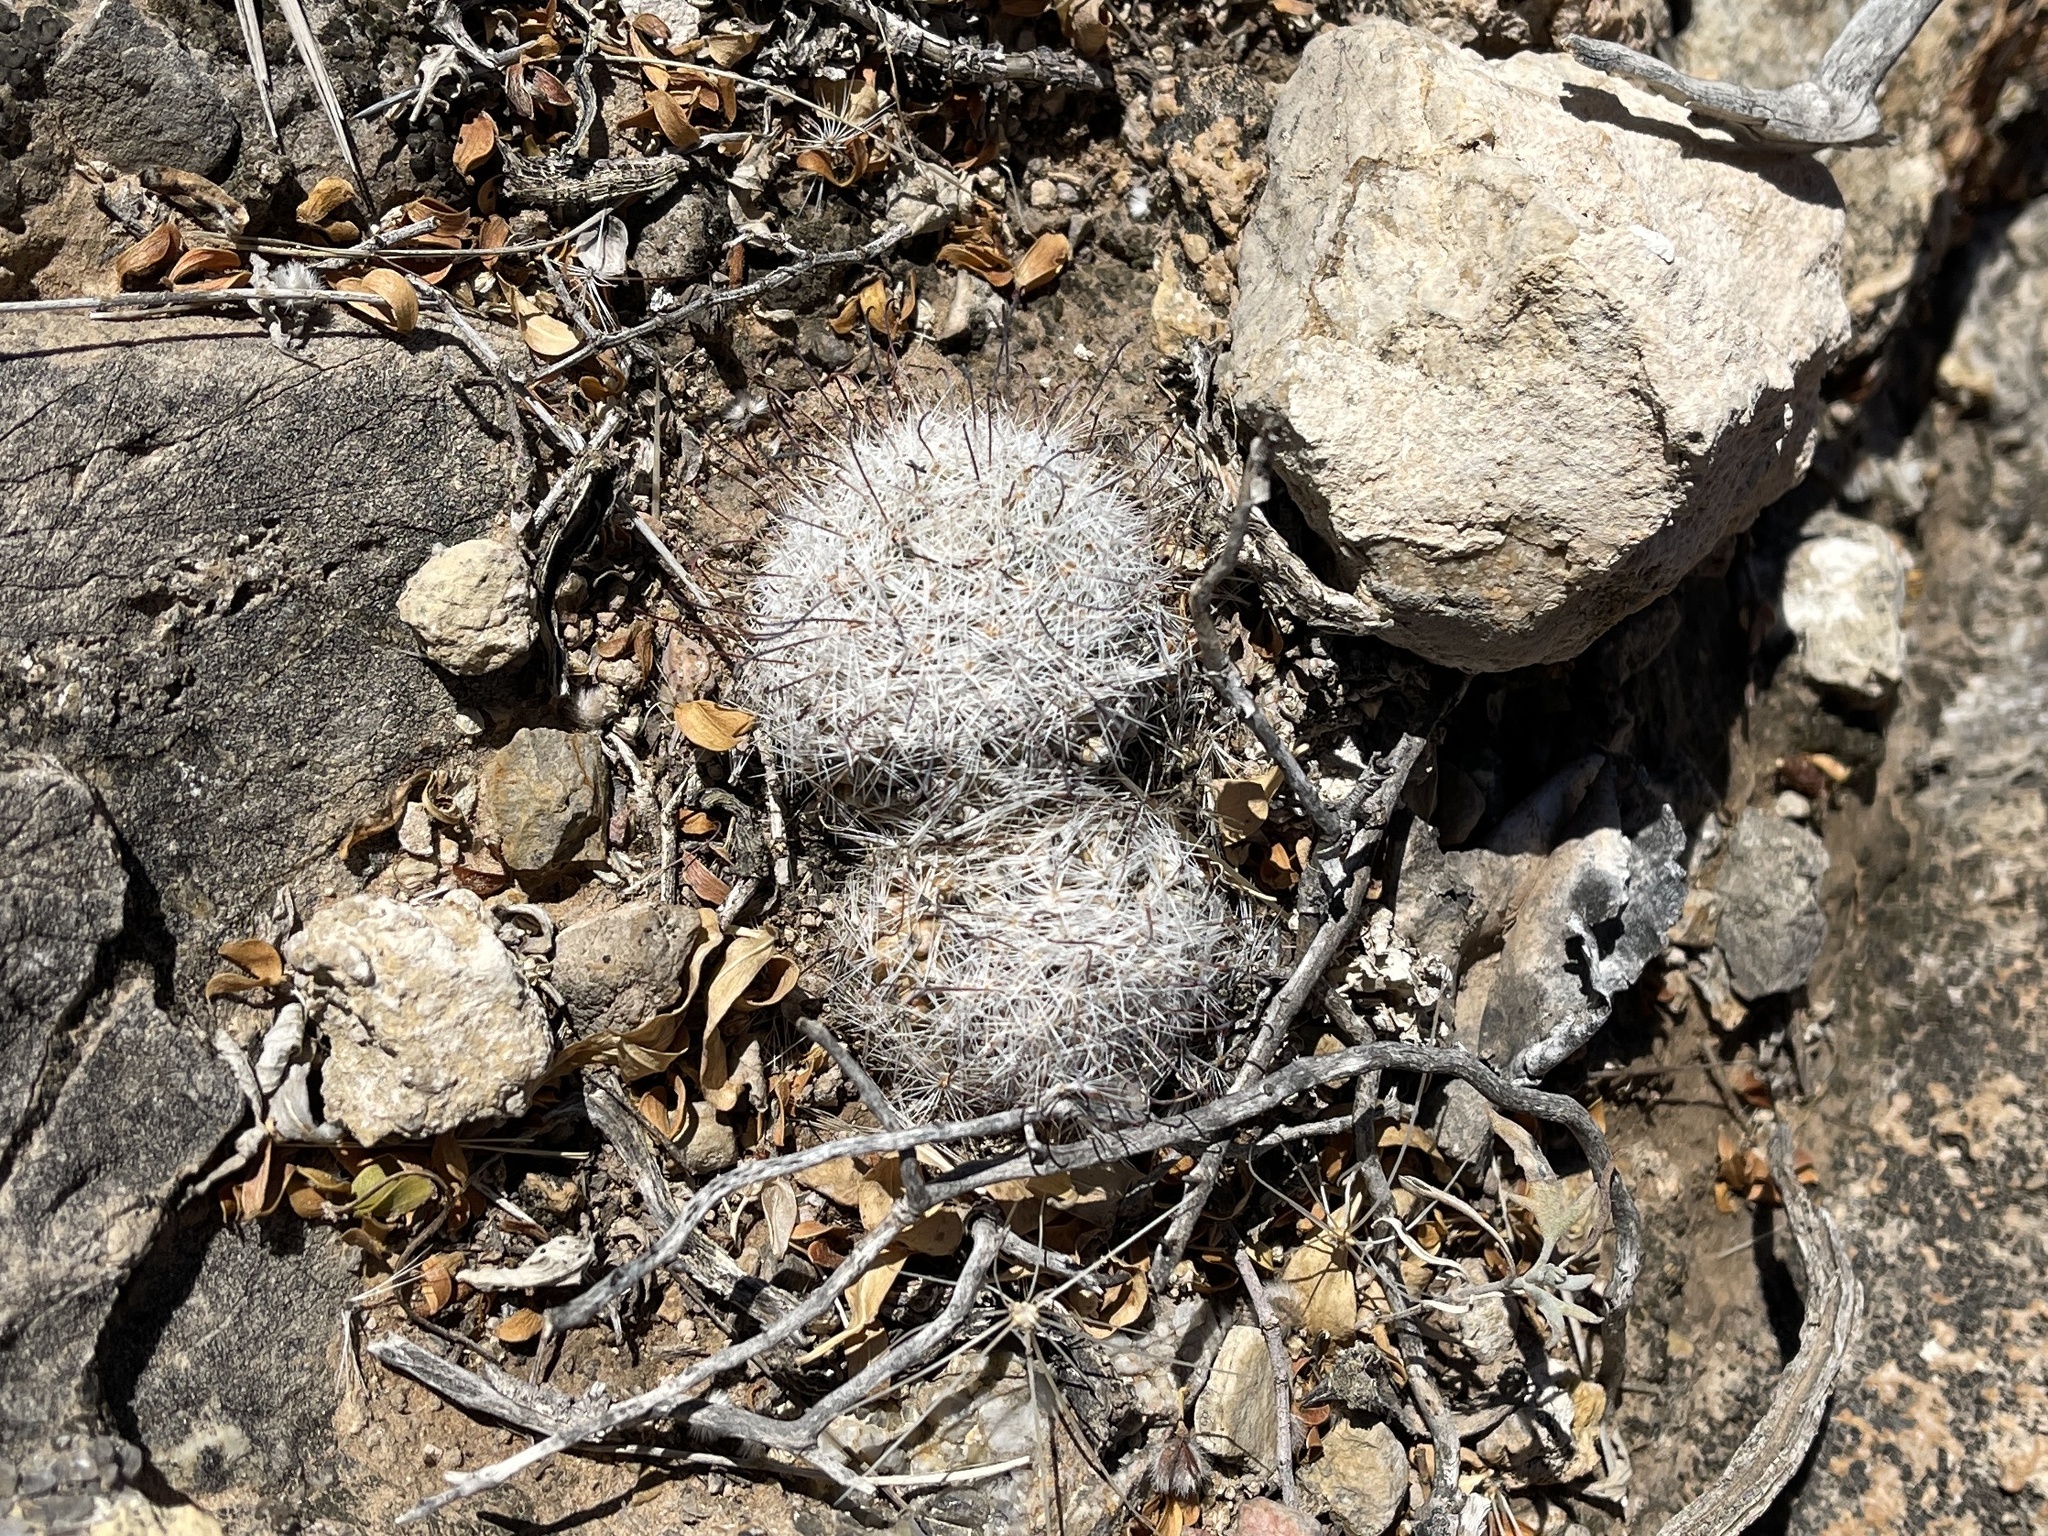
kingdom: Plantae
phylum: Tracheophyta
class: Magnoliopsida
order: Caryophyllales
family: Cactaceae
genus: Cochemiea
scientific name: Cochemiea grahamii
